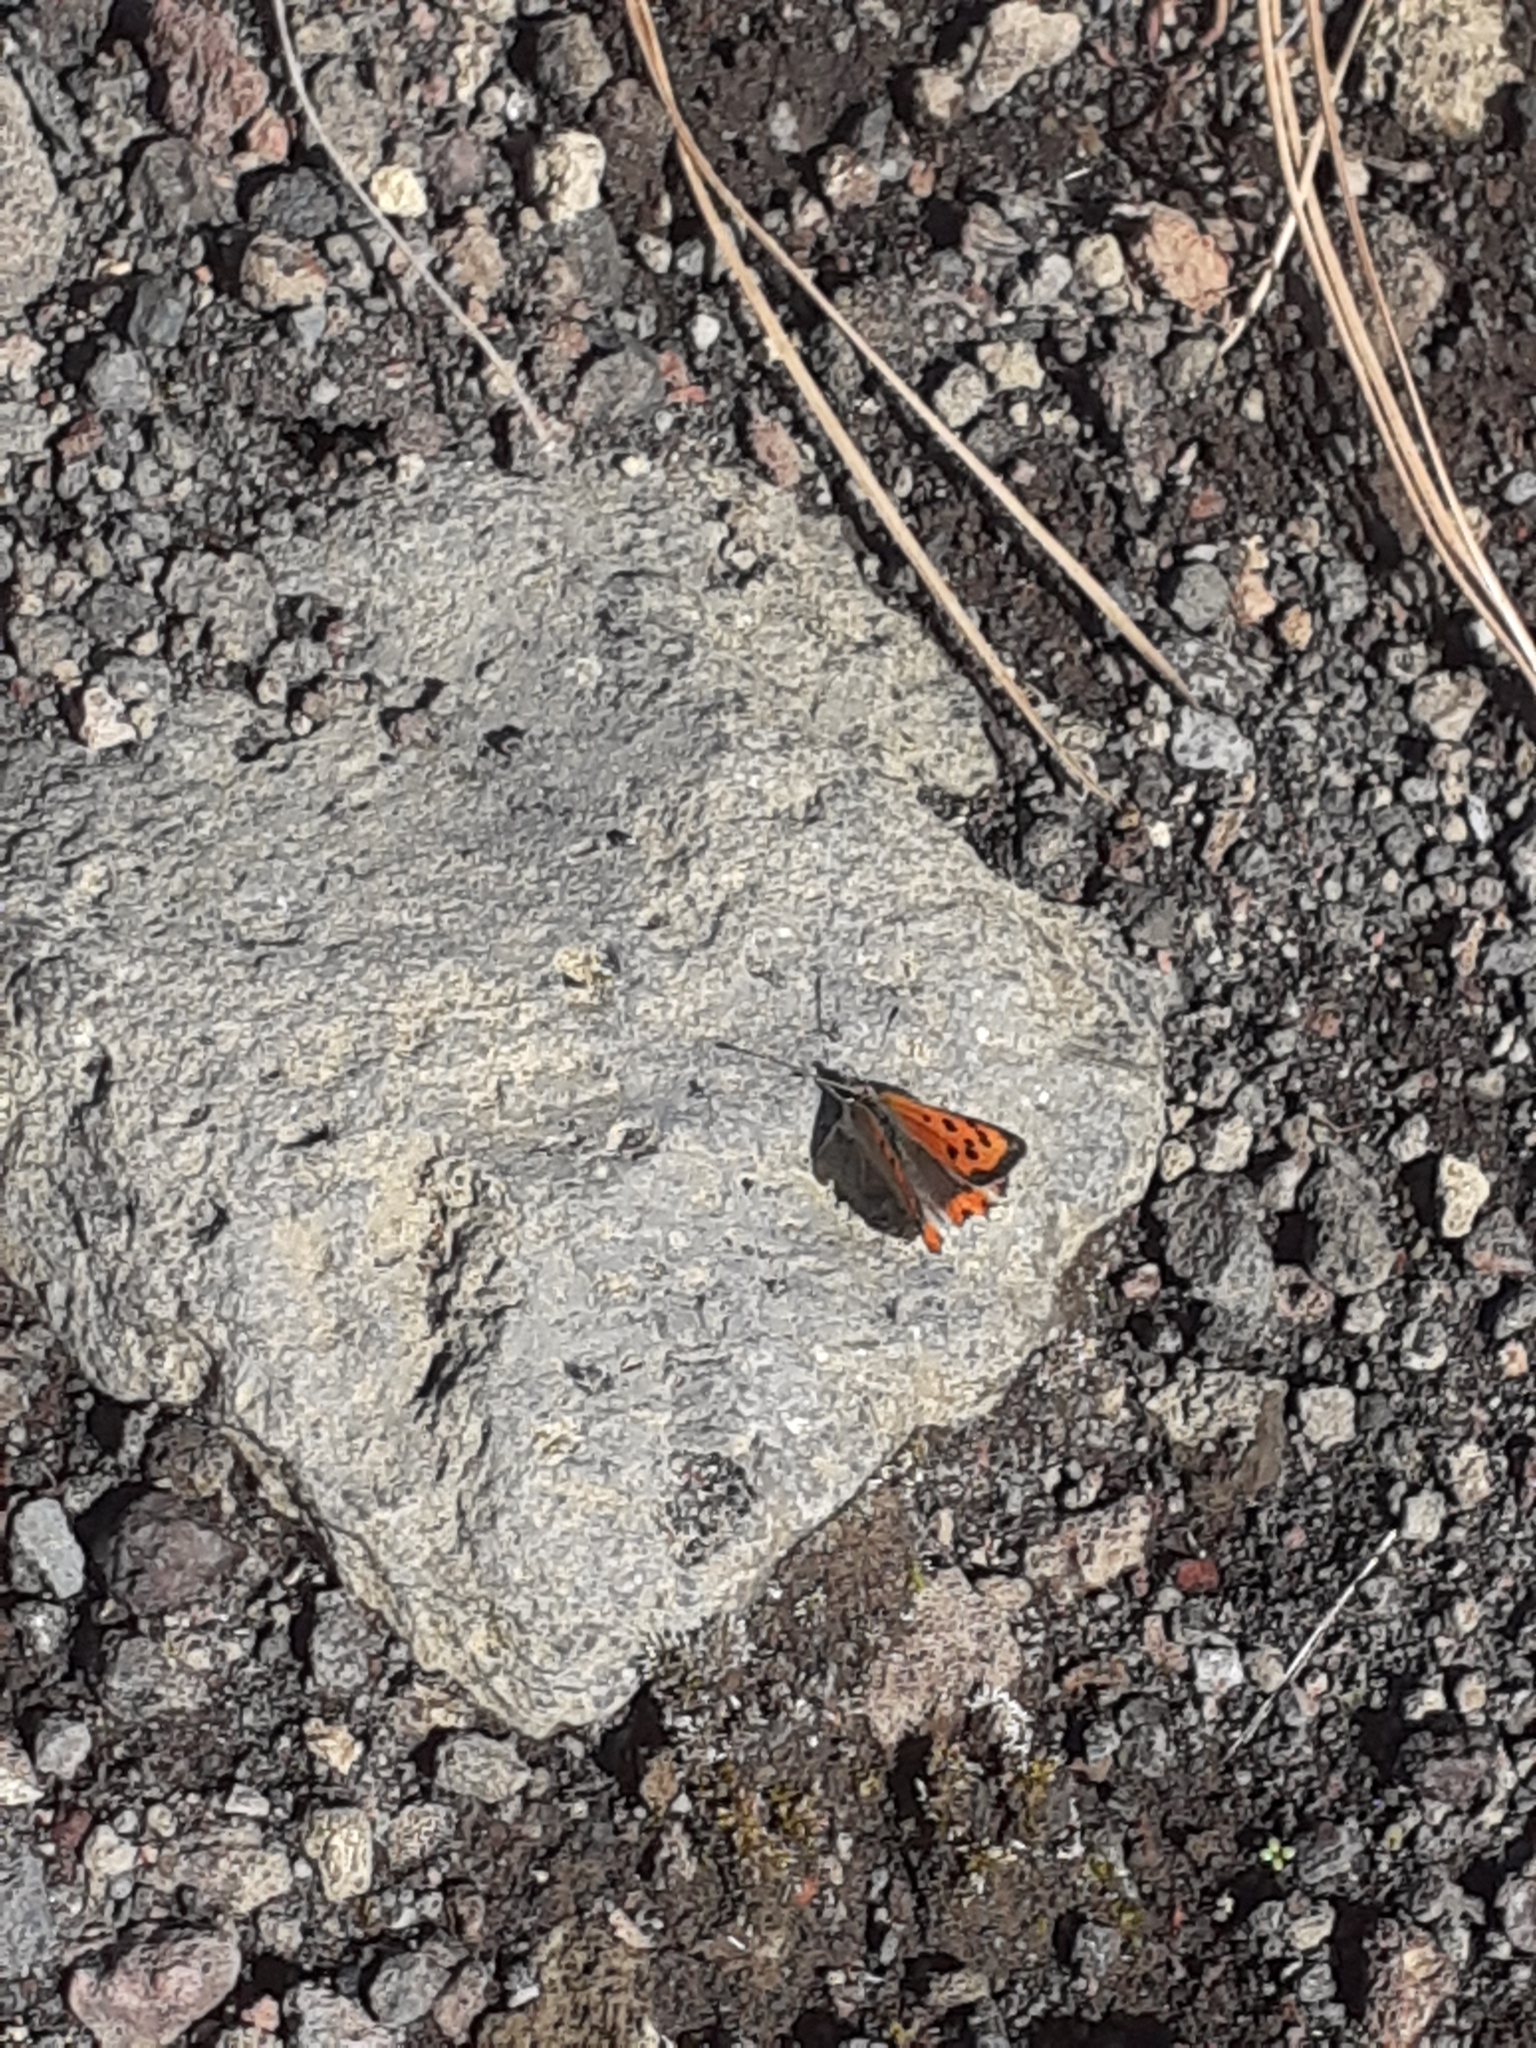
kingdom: Animalia
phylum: Arthropoda
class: Insecta
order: Lepidoptera
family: Lycaenidae
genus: Lycaena
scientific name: Lycaena phlaeas
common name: Small copper
